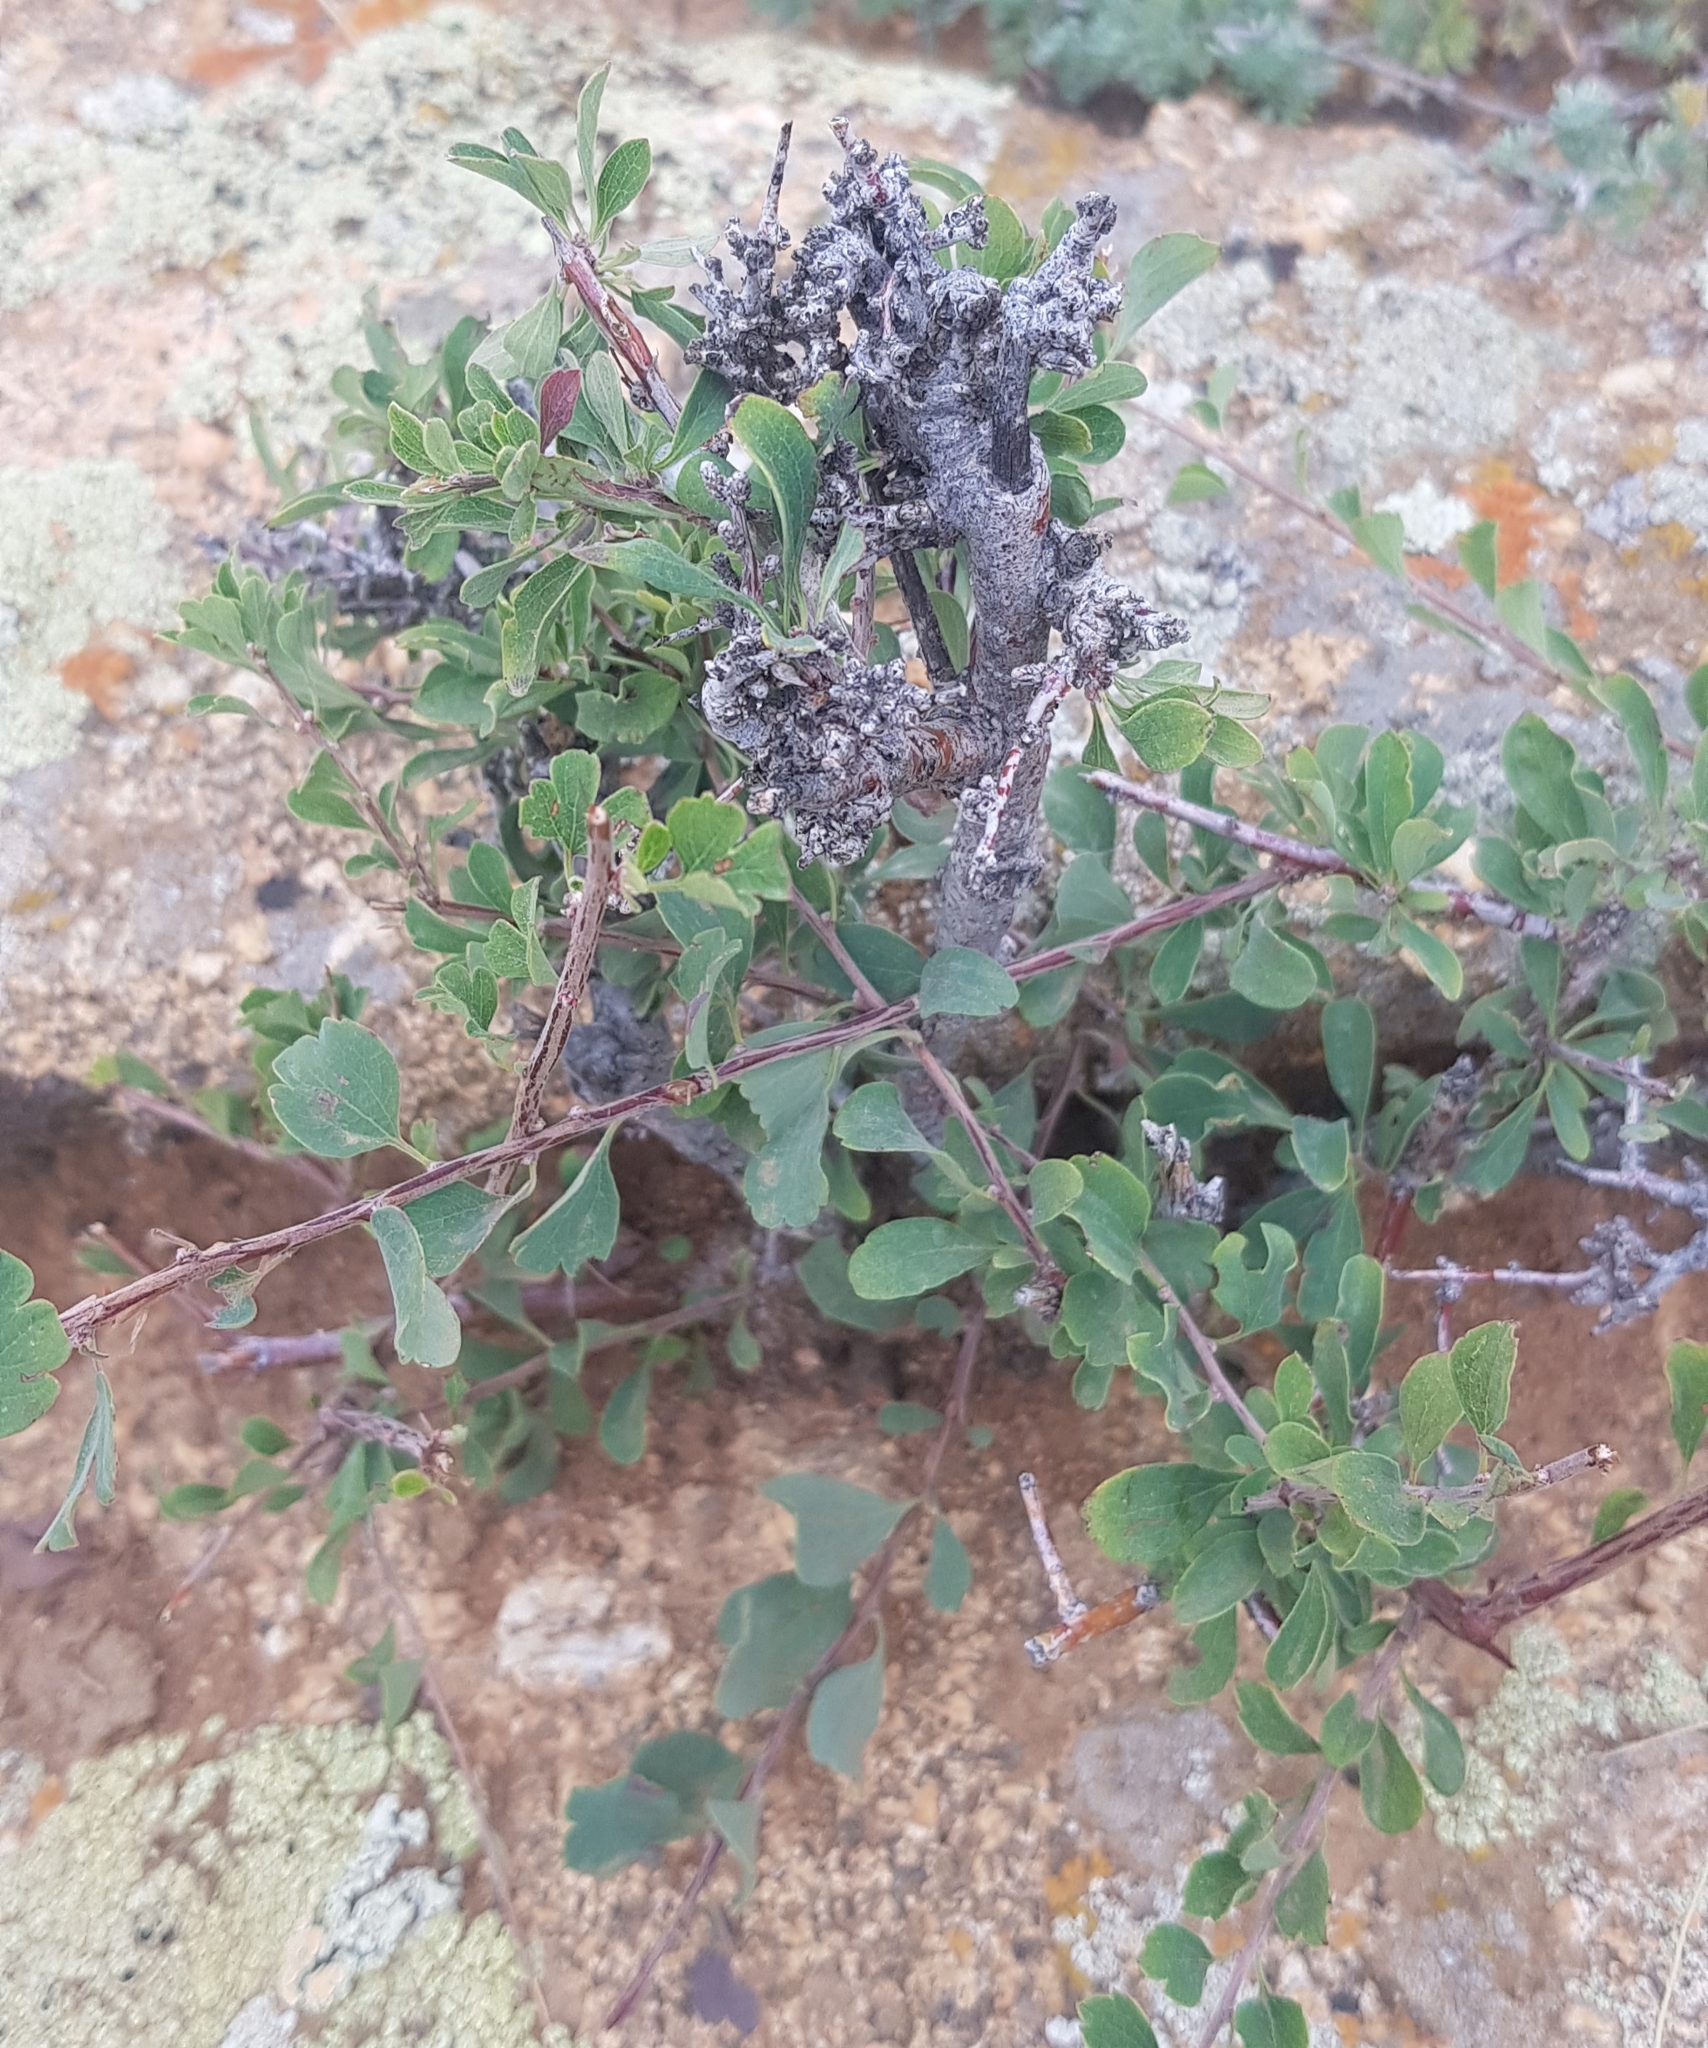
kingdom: Plantae
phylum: Tracheophyta
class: Magnoliopsida
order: Rosales
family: Rosaceae
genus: Spiraea
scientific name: Spiraea aquilegifolia
